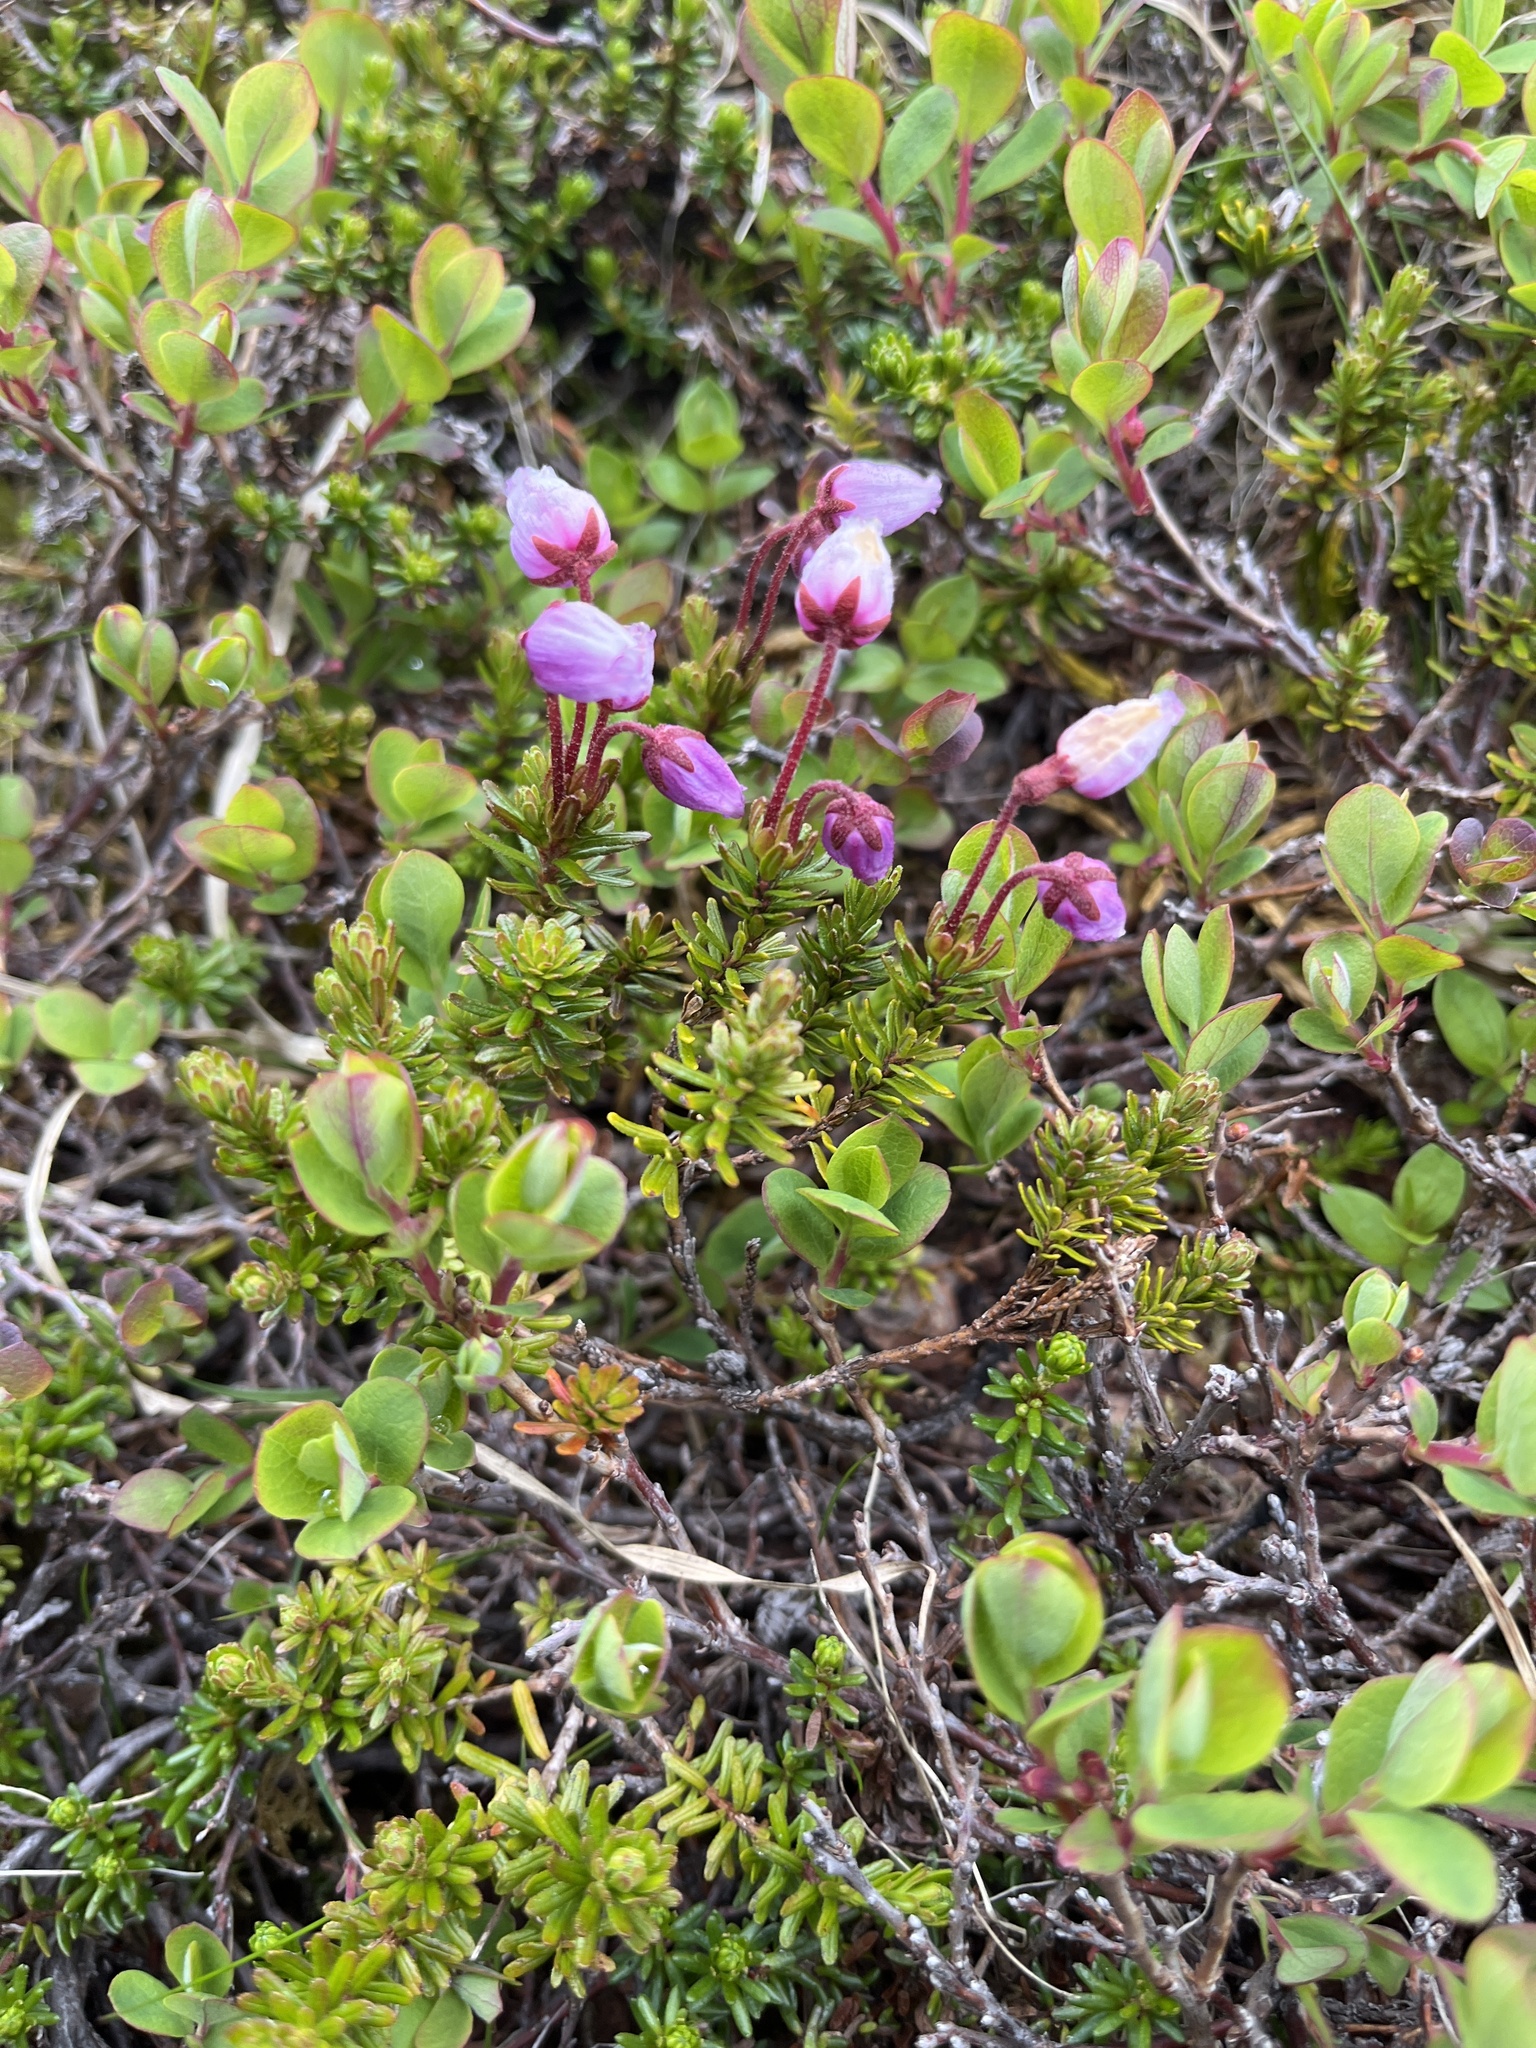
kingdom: Plantae
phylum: Tracheophyta
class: Magnoliopsida
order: Ericales
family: Ericaceae
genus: Phyllodoce
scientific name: Phyllodoce caerulea
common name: Blue heath
